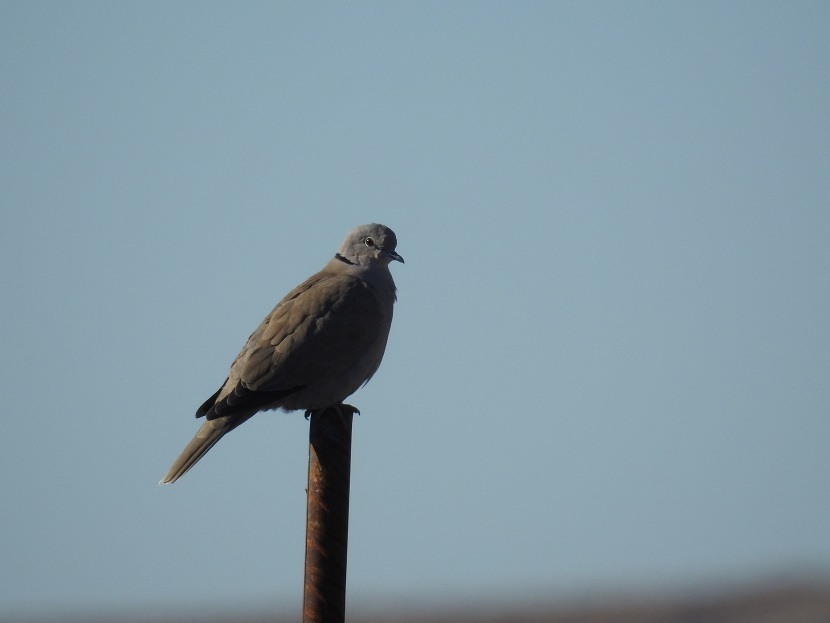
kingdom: Animalia
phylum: Chordata
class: Aves
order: Columbiformes
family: Columbidae
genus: Streptopelia
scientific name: Streptopelia decaocto
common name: Eurasian collared dove
